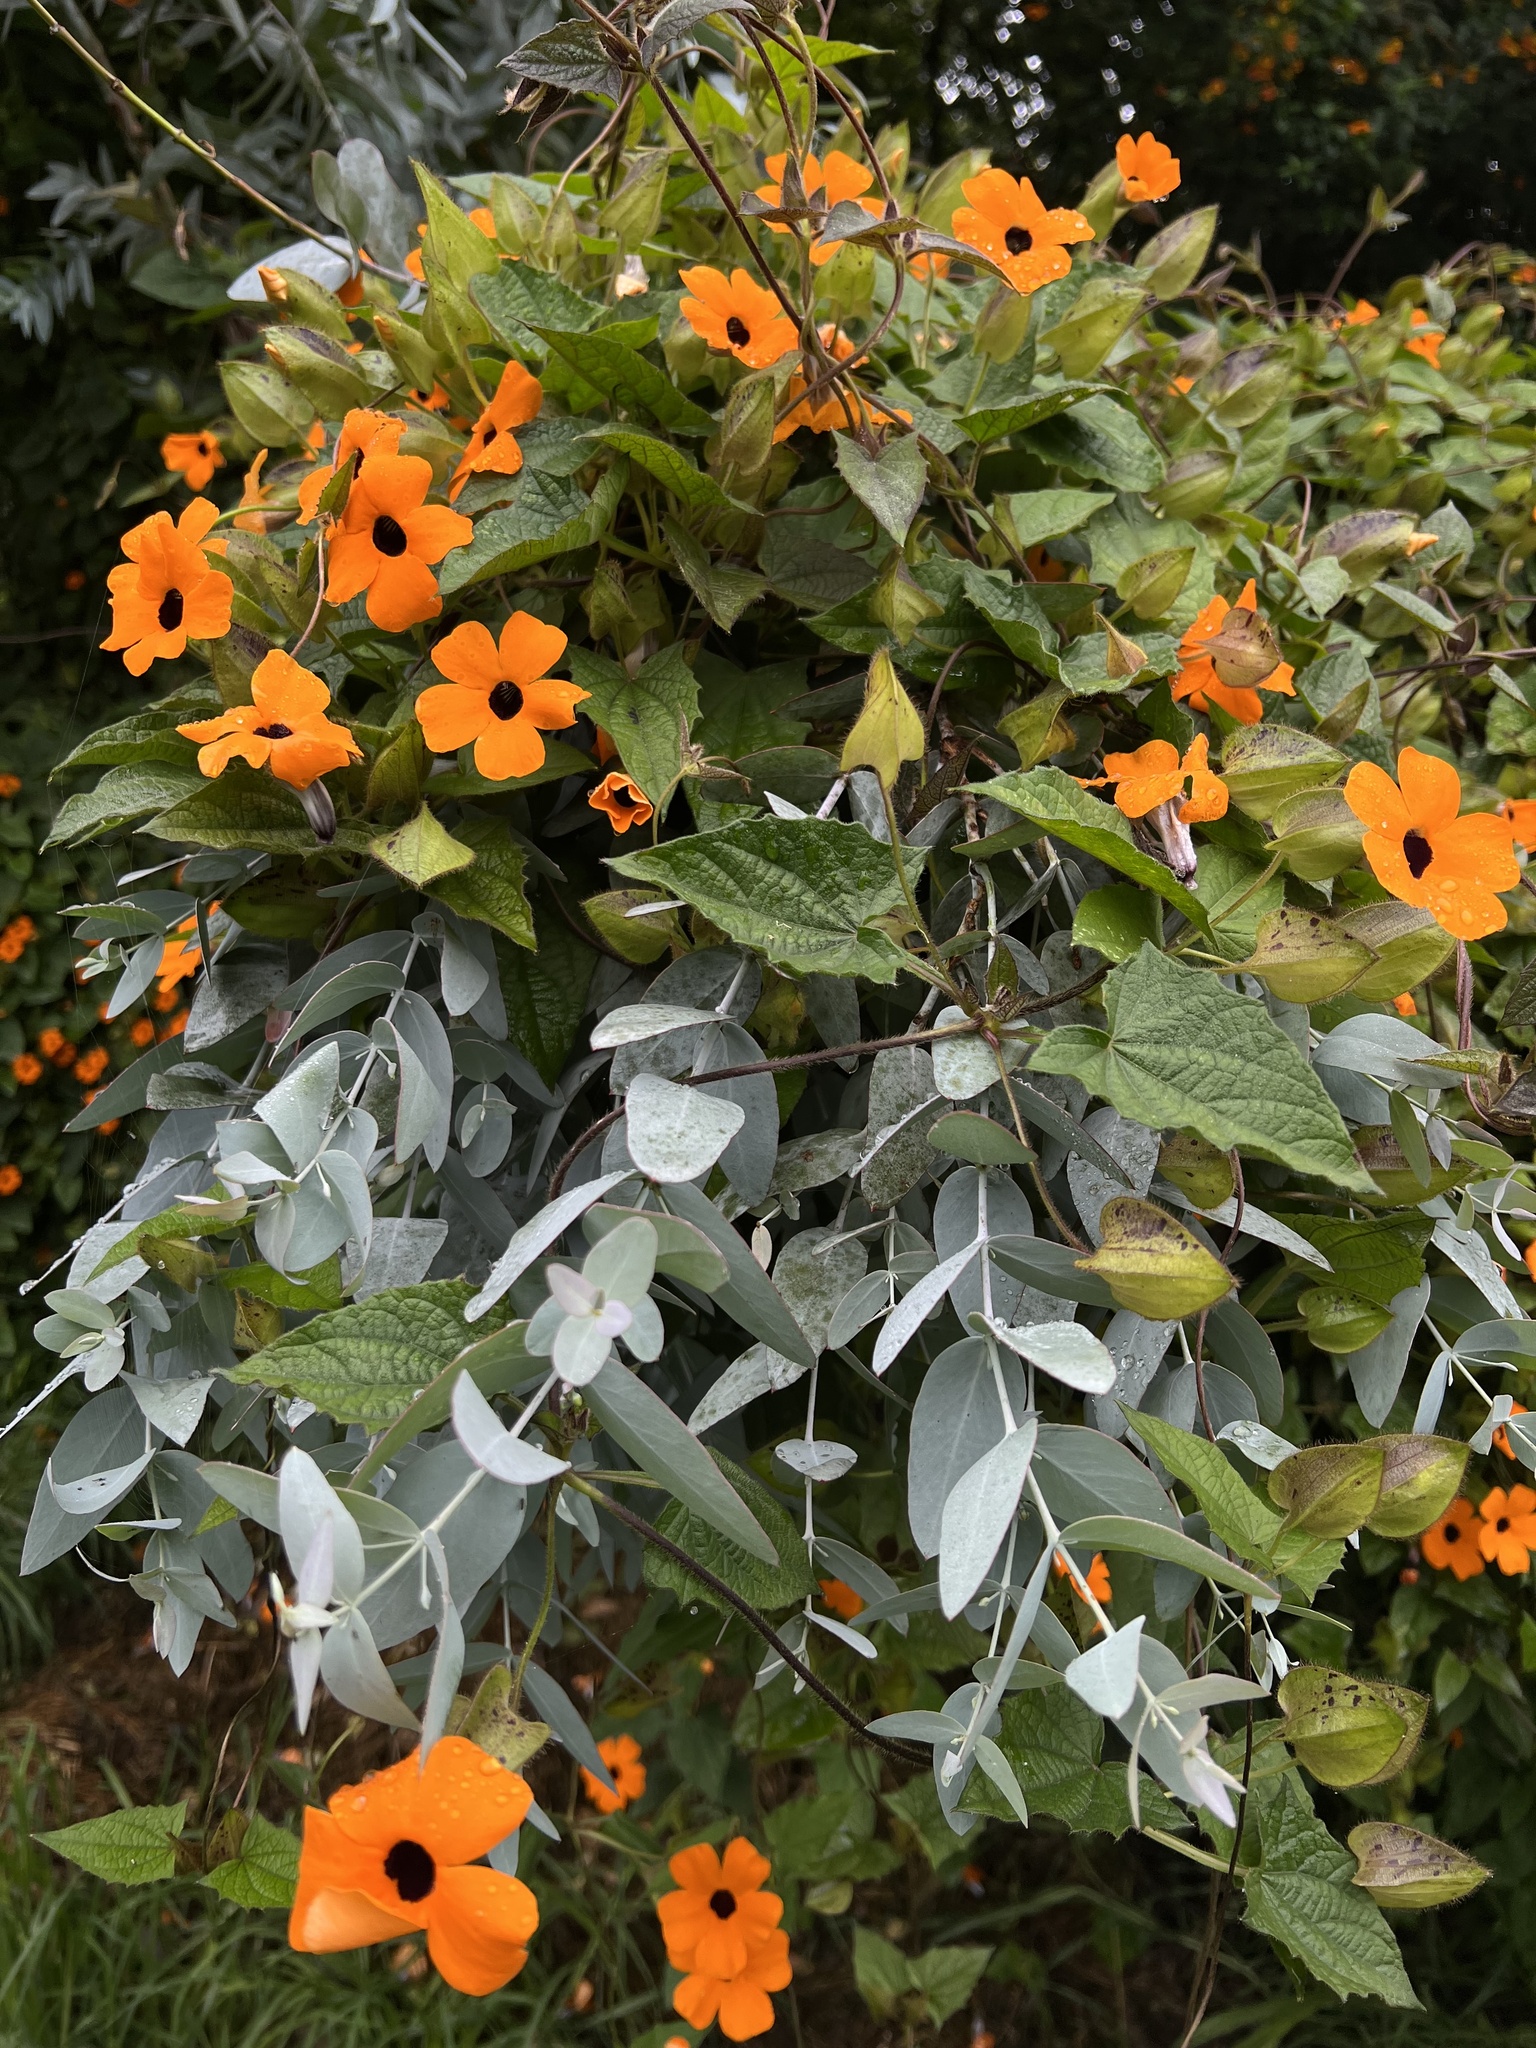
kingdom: Plantae
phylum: Tracheophyta
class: Magnoliopsida
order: Lamiales
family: Acanthaceae
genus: Thunbergia
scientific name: Thunbergia alata
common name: Blackeyed susan vine
